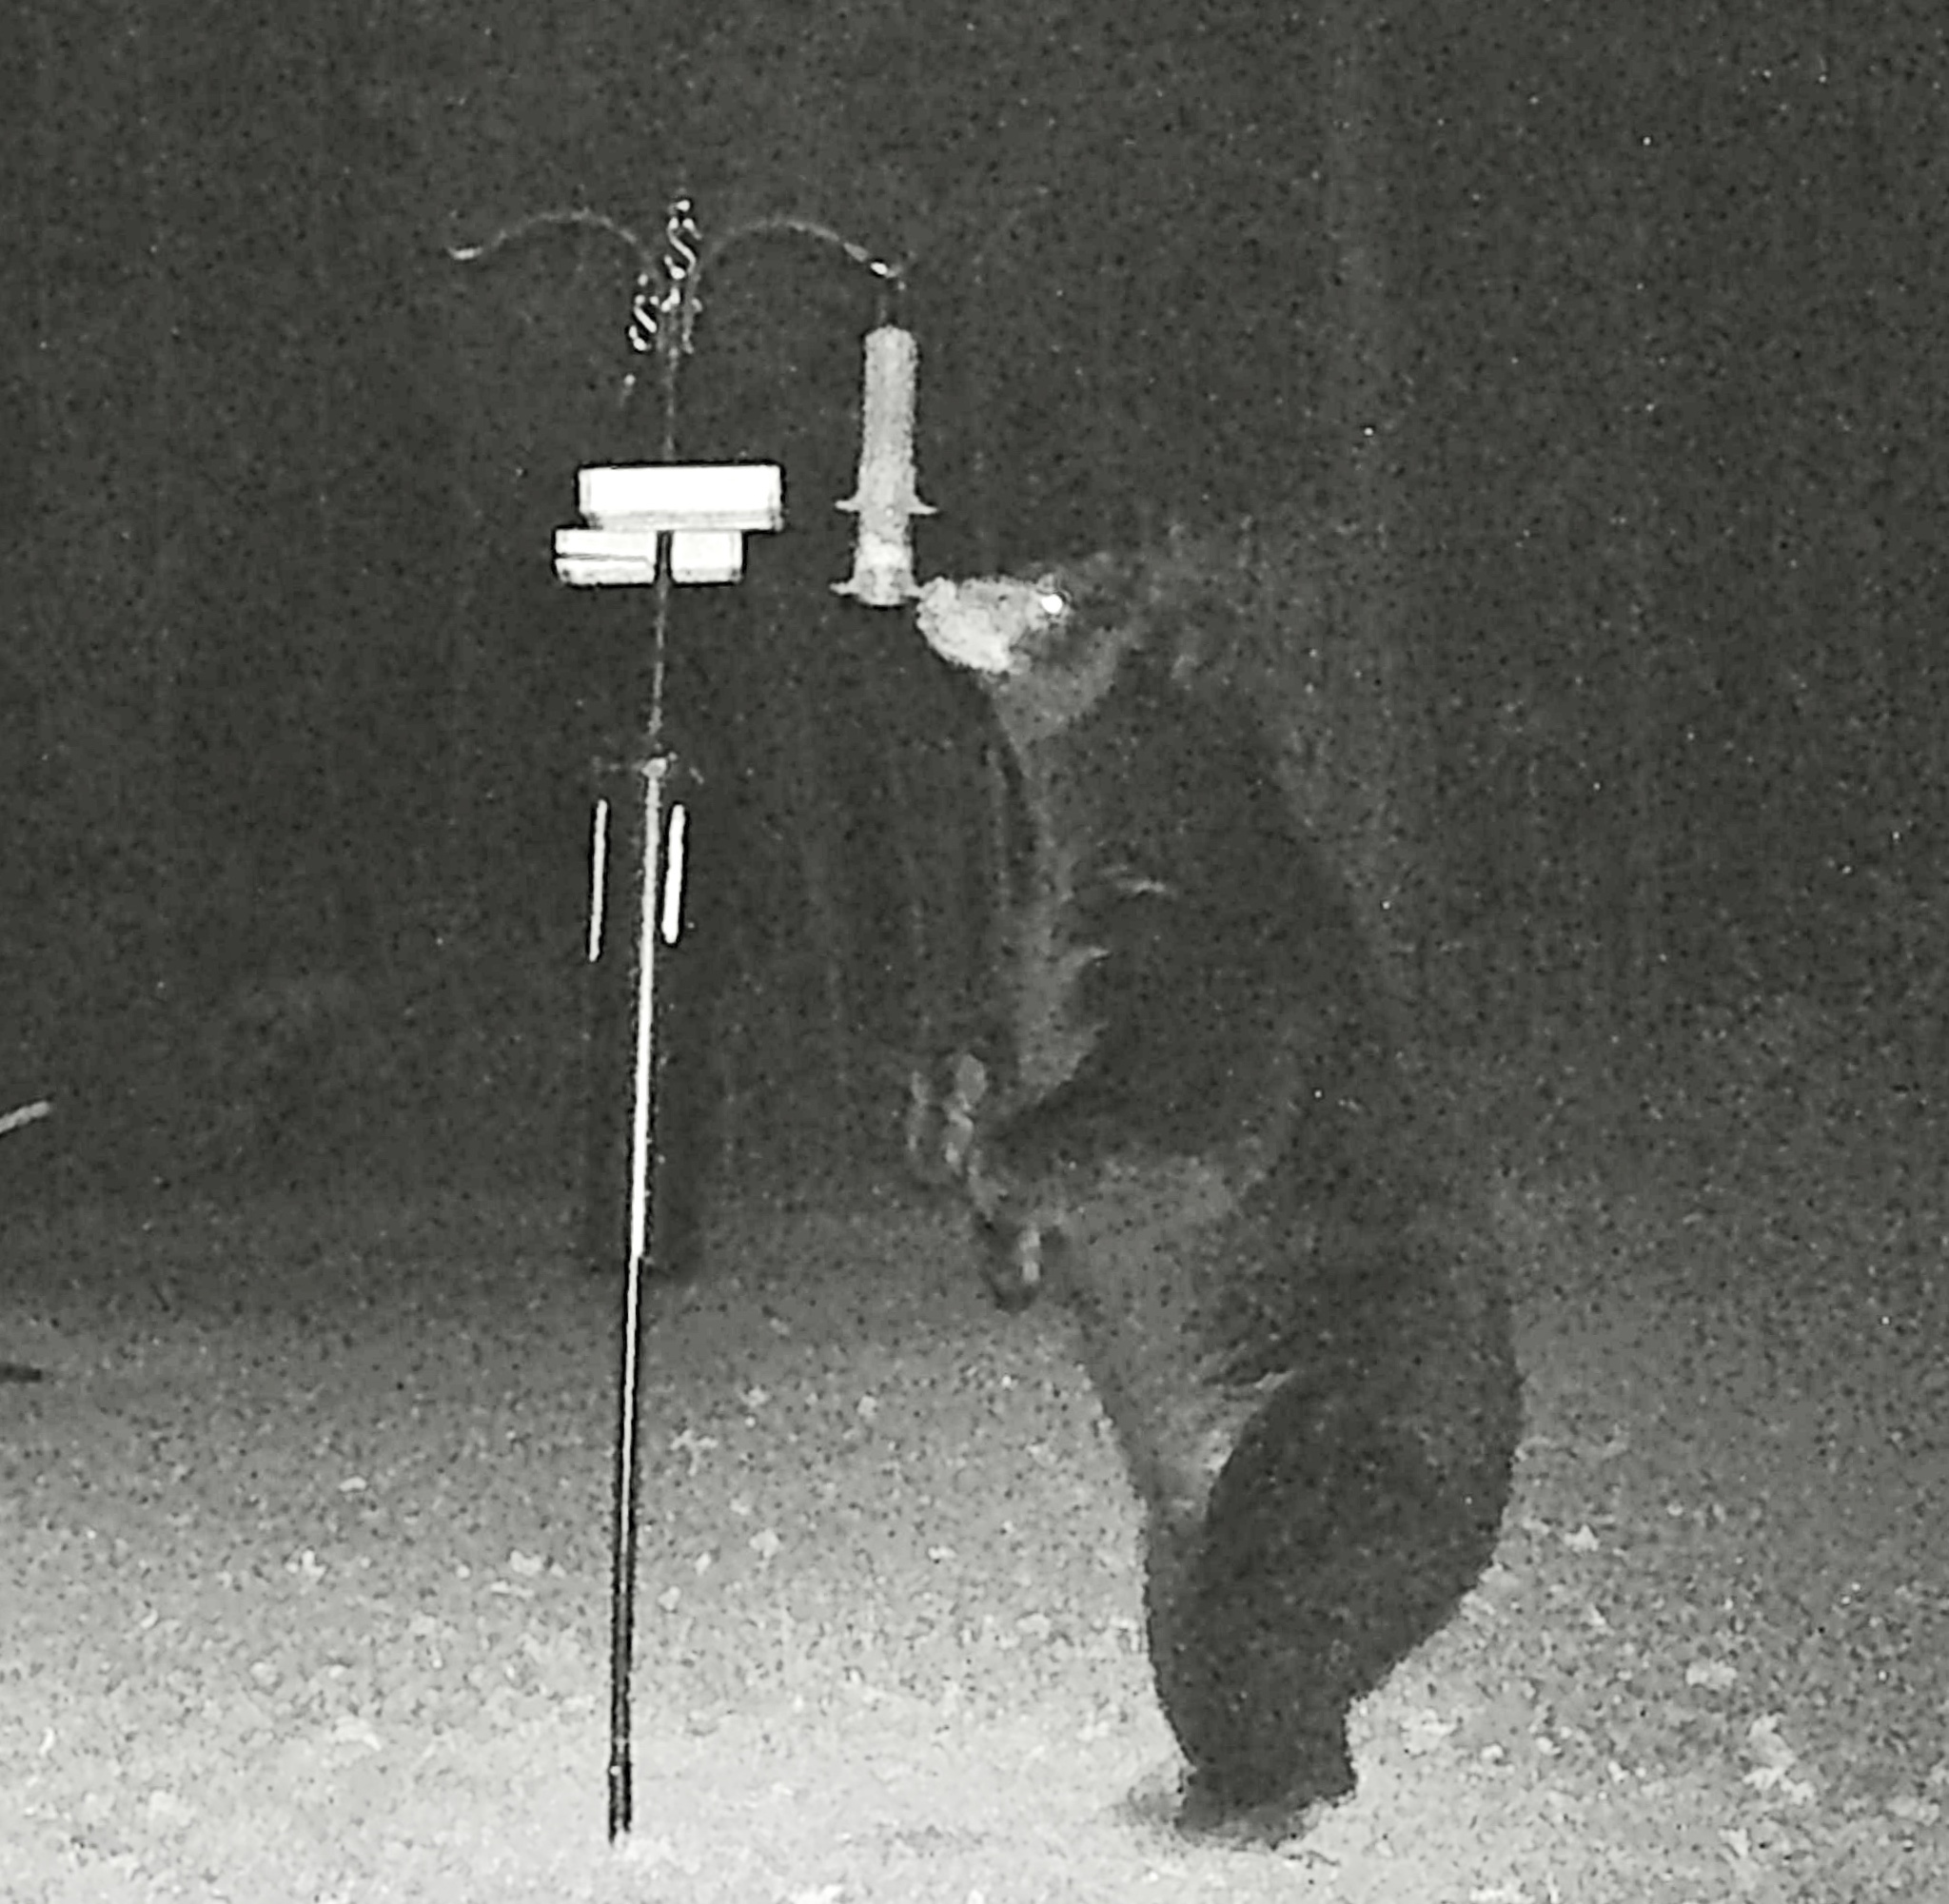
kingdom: Animalia
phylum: Chordata
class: Mammalia
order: Carnivora
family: Ursidae
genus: Ursus
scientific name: Ursus americanus
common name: American black bear
